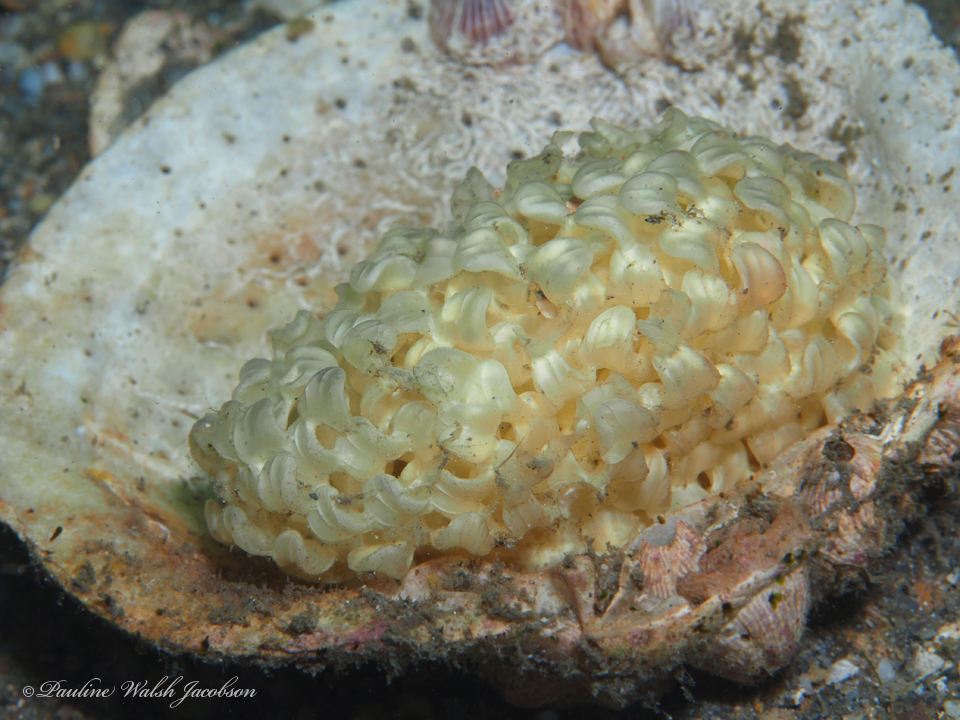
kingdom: Animalia
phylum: Mollusca
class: Gastropoda
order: Neogastropoda
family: Muricidae
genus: Phyllonotus
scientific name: Phyllonotus pomum
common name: Apple murex
